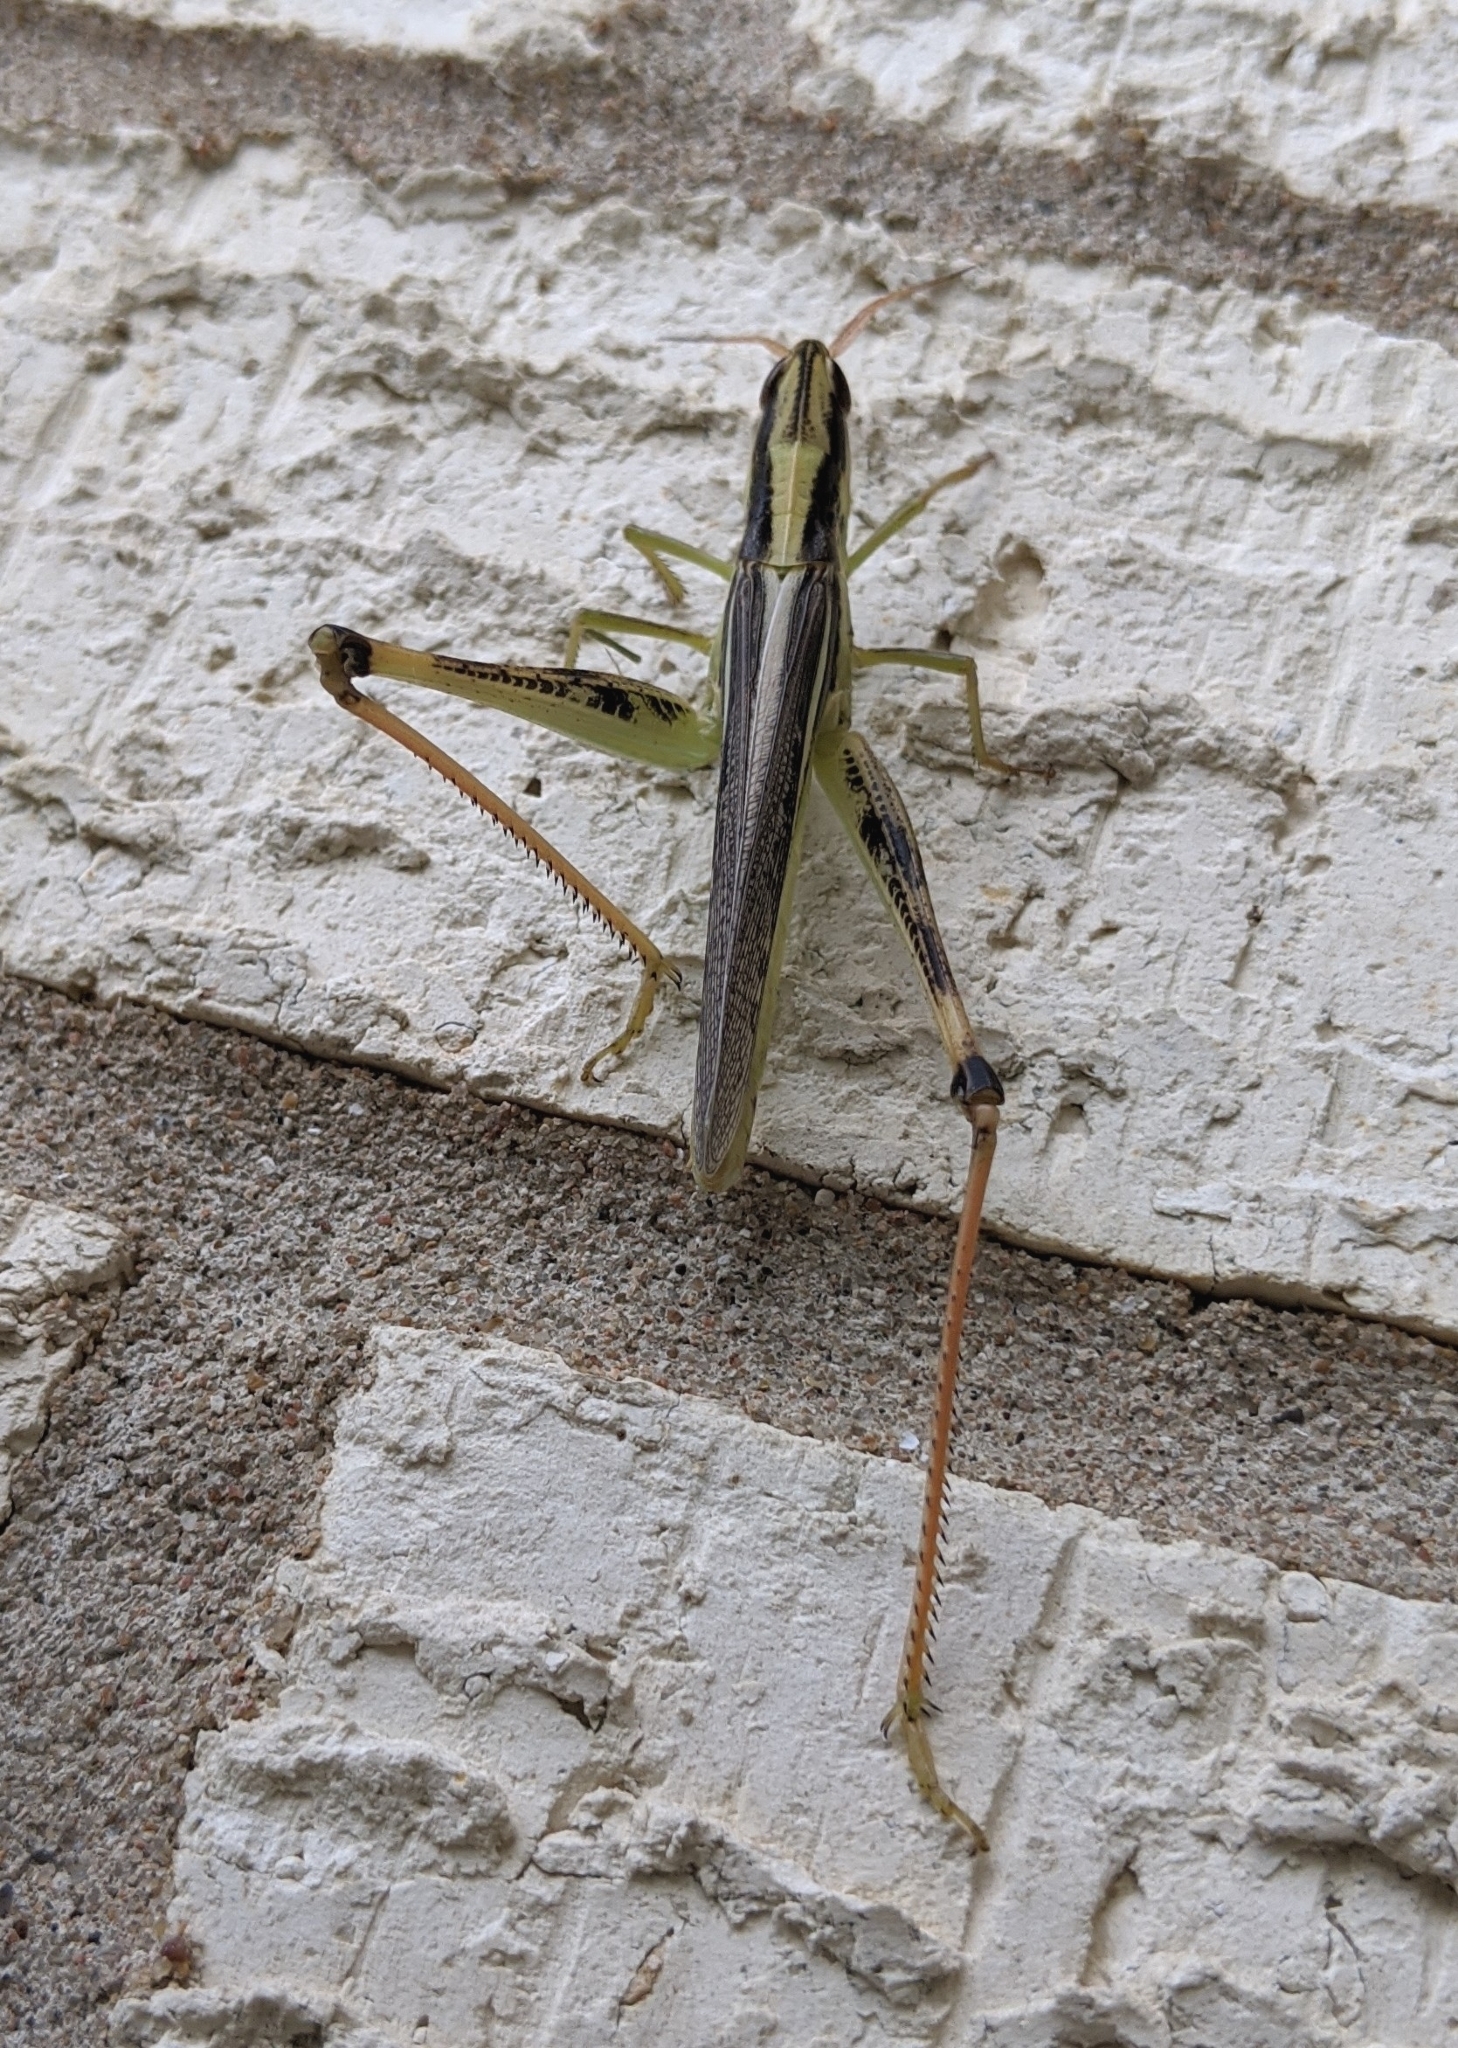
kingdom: Animalia
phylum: Arthropoda
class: Insecta
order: Orthoptera
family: Acrididae
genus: Mermiria
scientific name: Mermiria bivittata
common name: Two-striped mermiria grasshopper
